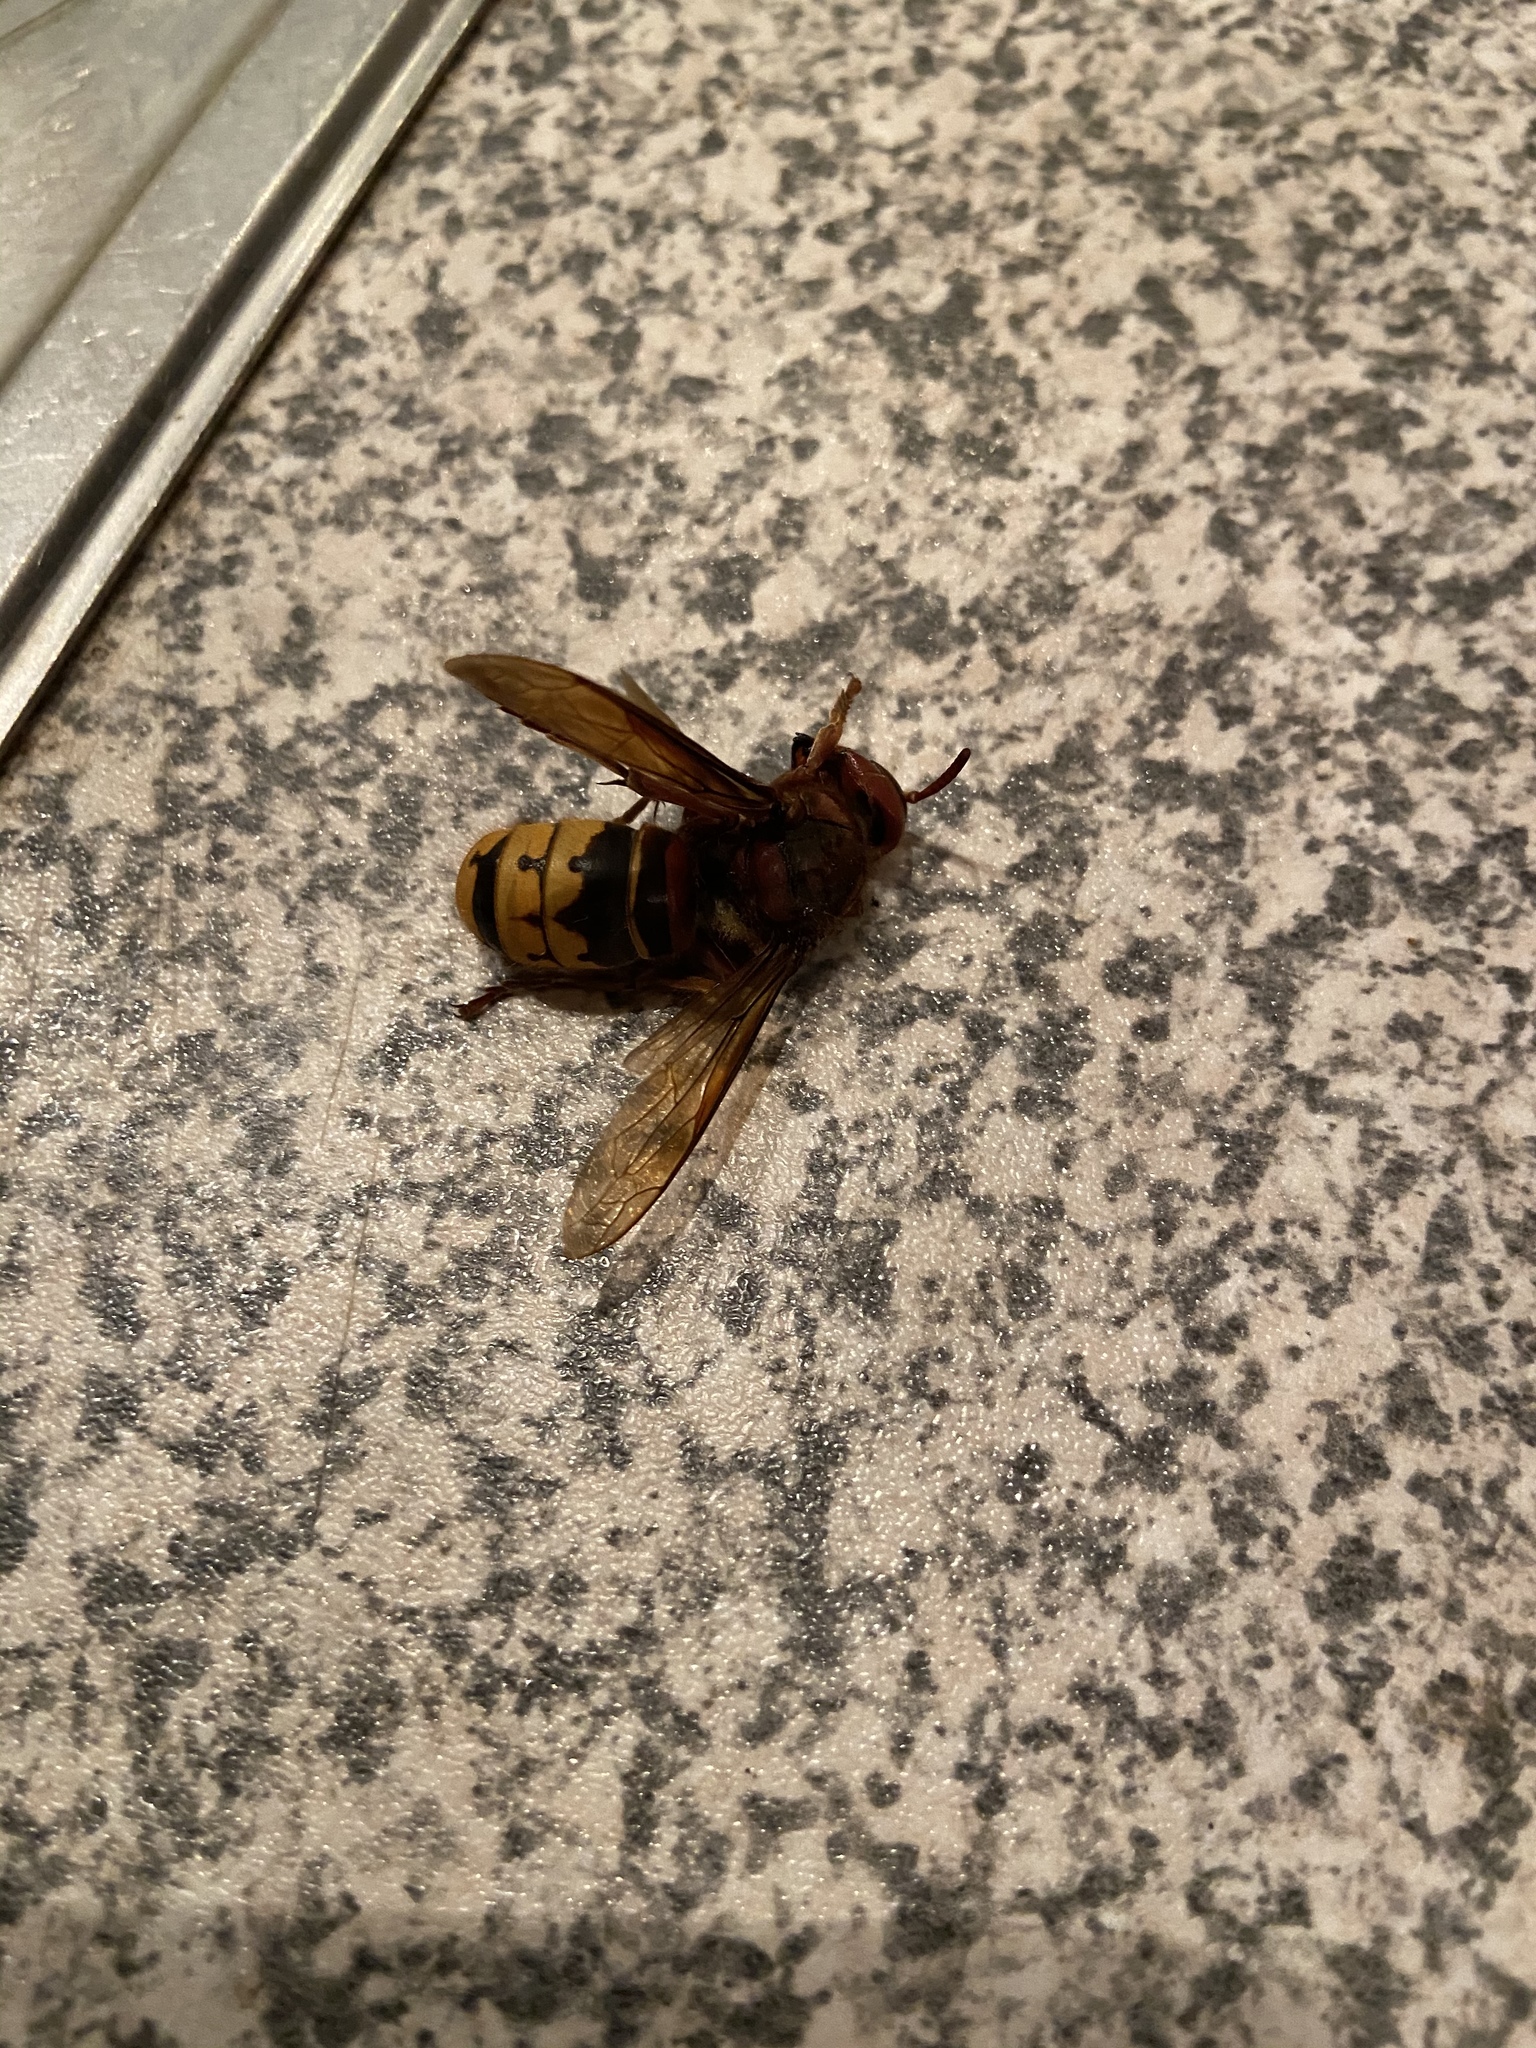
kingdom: Animalia
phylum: Arthropoda
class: Insecta
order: Hymenoptera
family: Vespidae
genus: Vespa
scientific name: Vespa crabro
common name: Hornet
